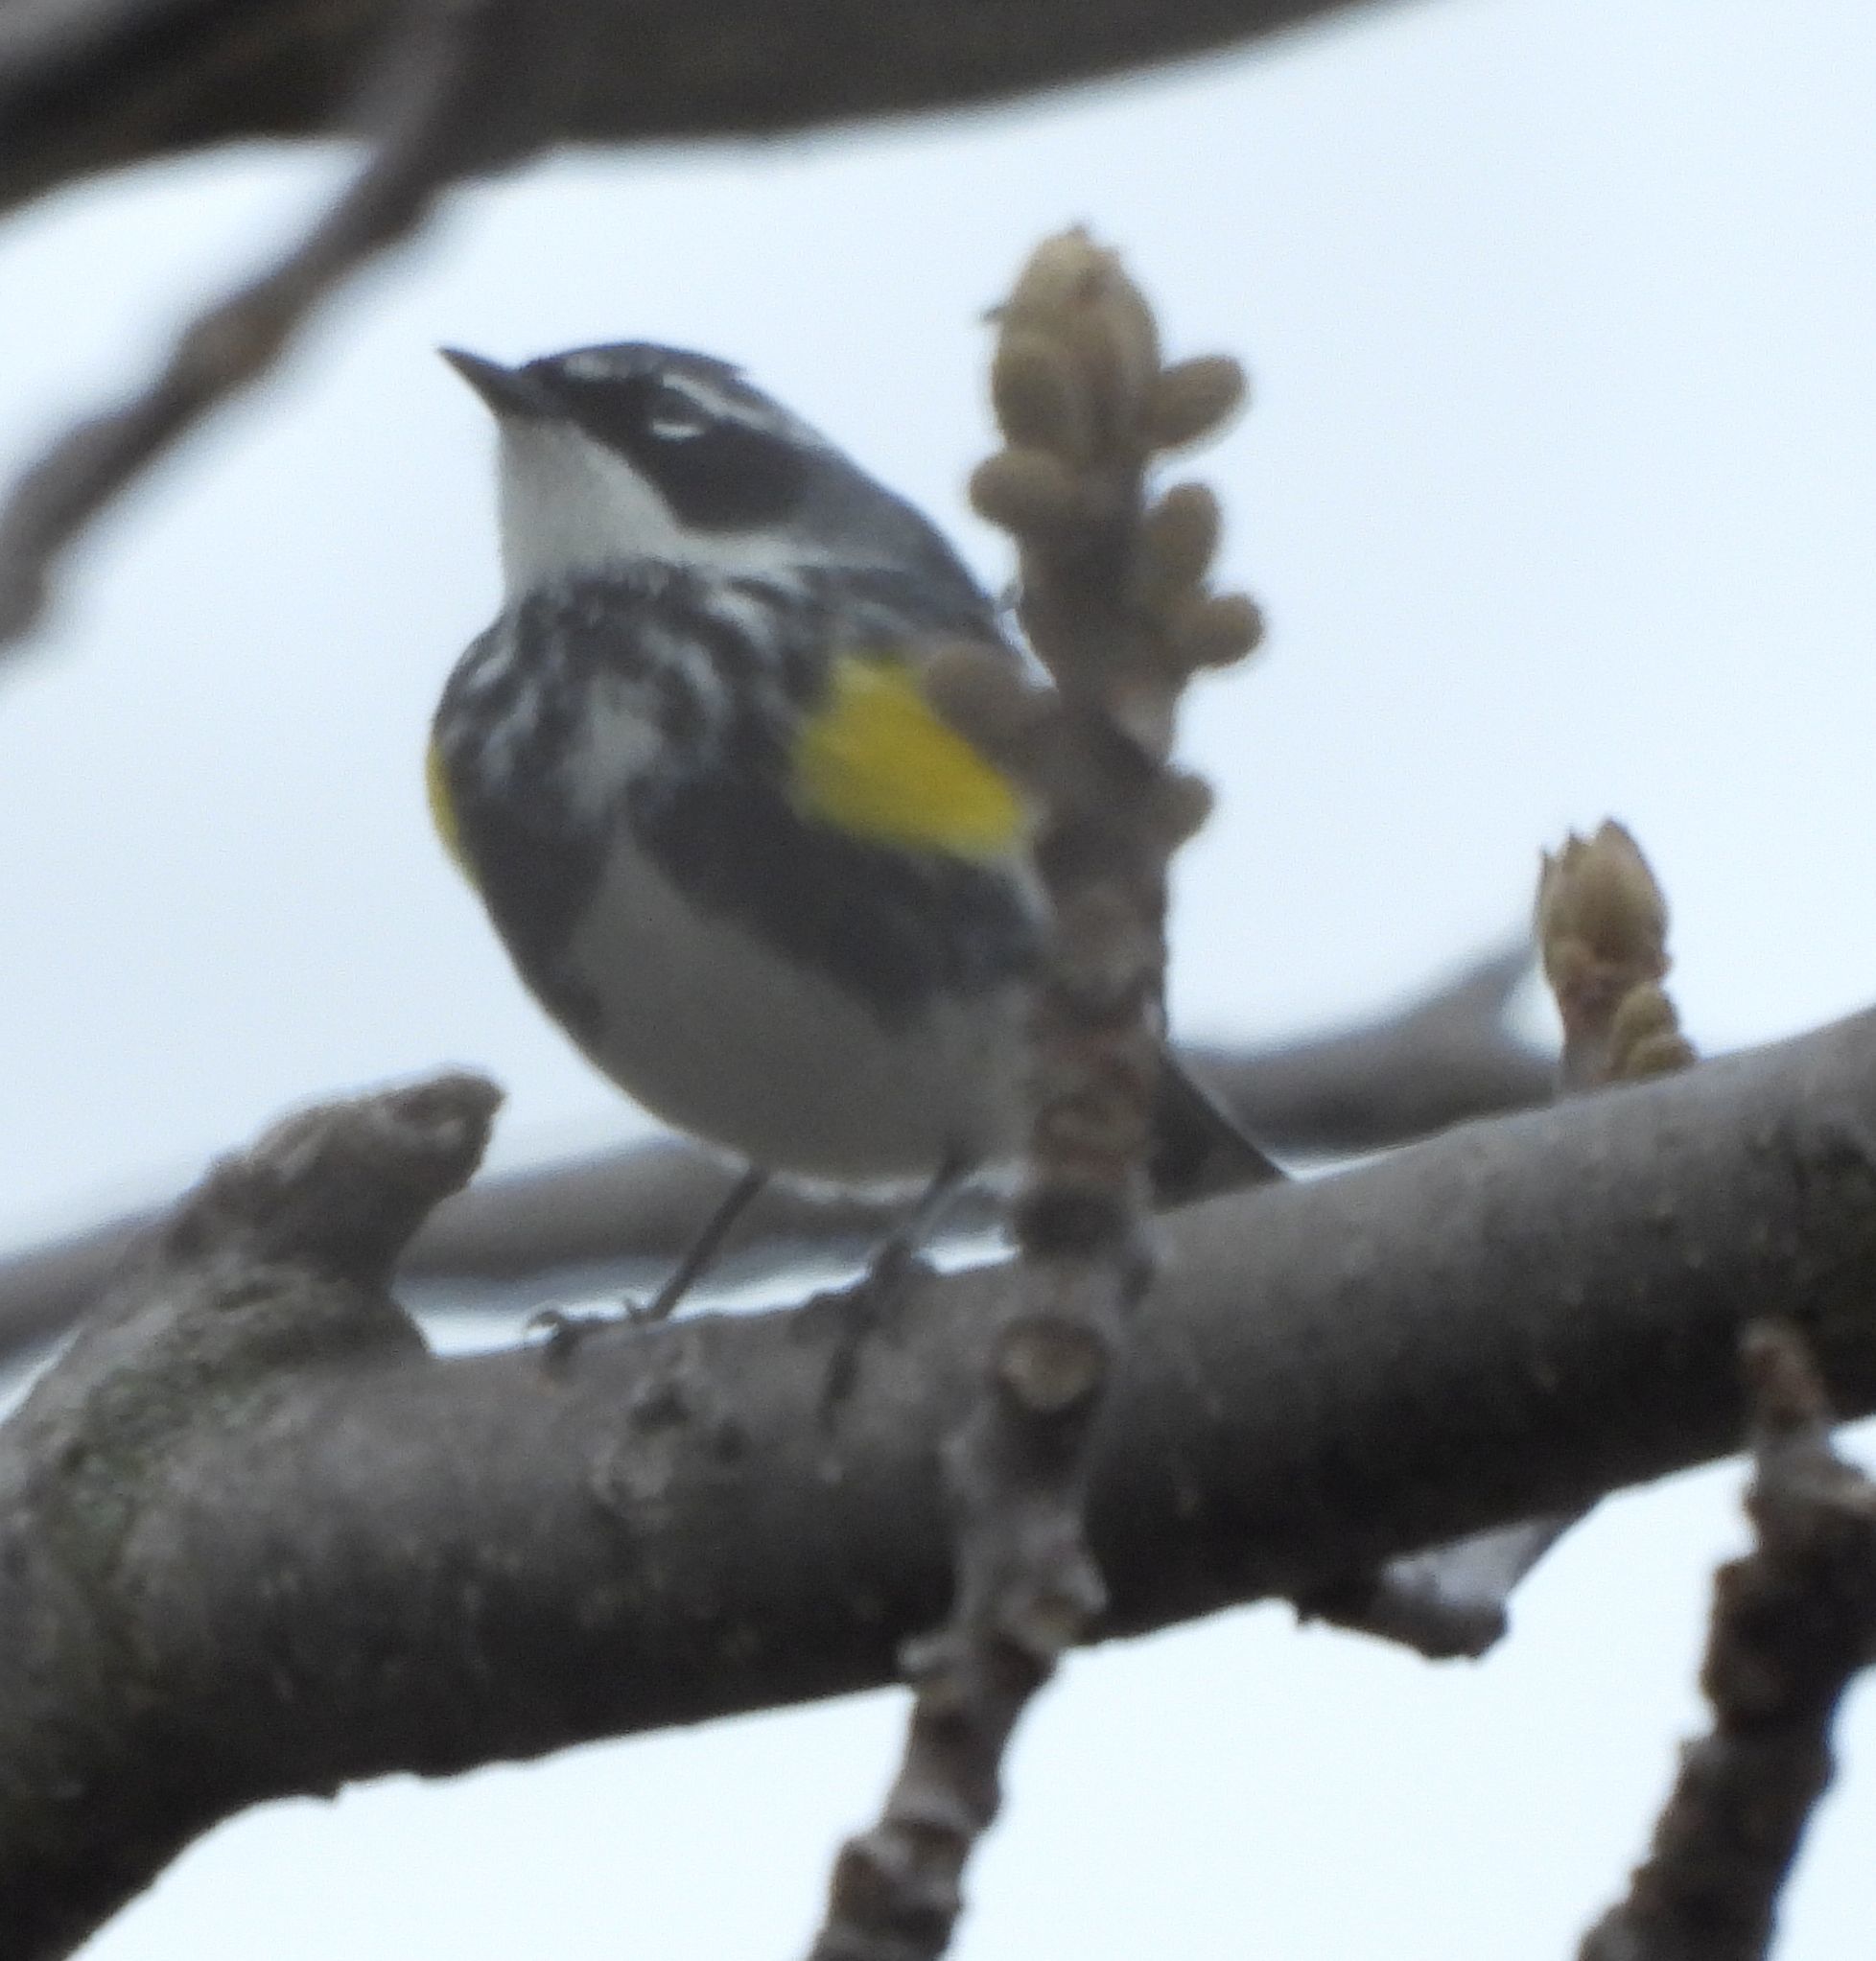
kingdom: Animalia
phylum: Chordata
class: Aves
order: Passeriformes
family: Parulidae
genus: Setophaga
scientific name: Setophaga coronata
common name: Myrtle warbler
